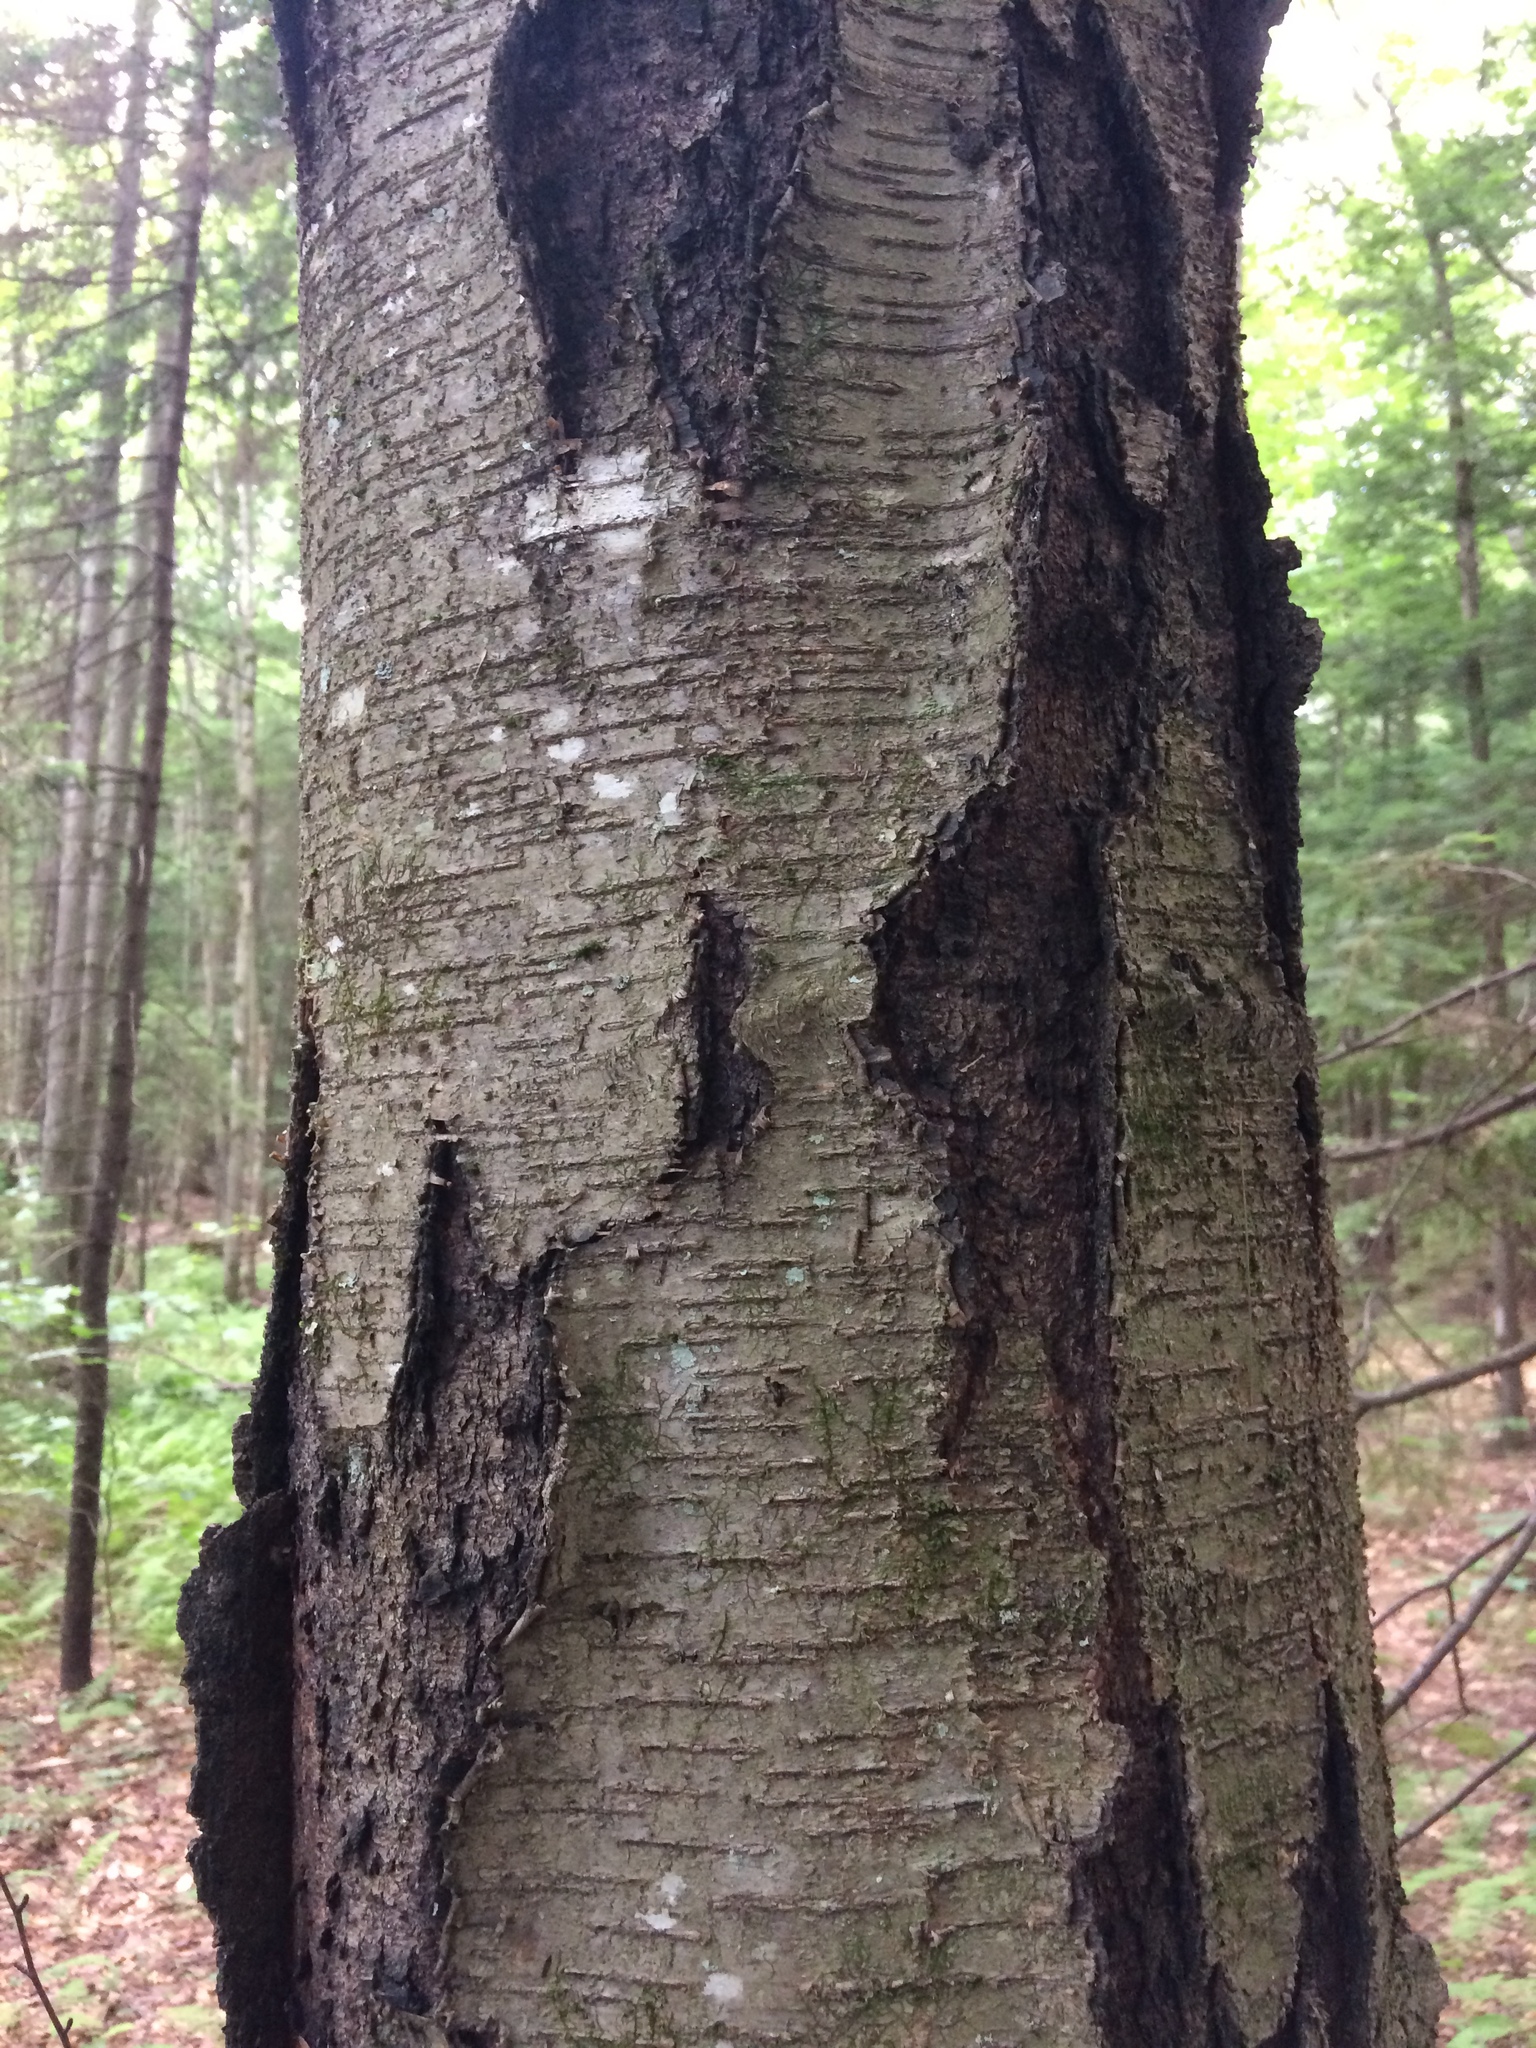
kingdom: Plantae
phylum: Tracheophyta
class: Magnoliopsida
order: Fagales
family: Betulaceae
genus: Betula
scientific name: Betula lenta
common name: Black birch
